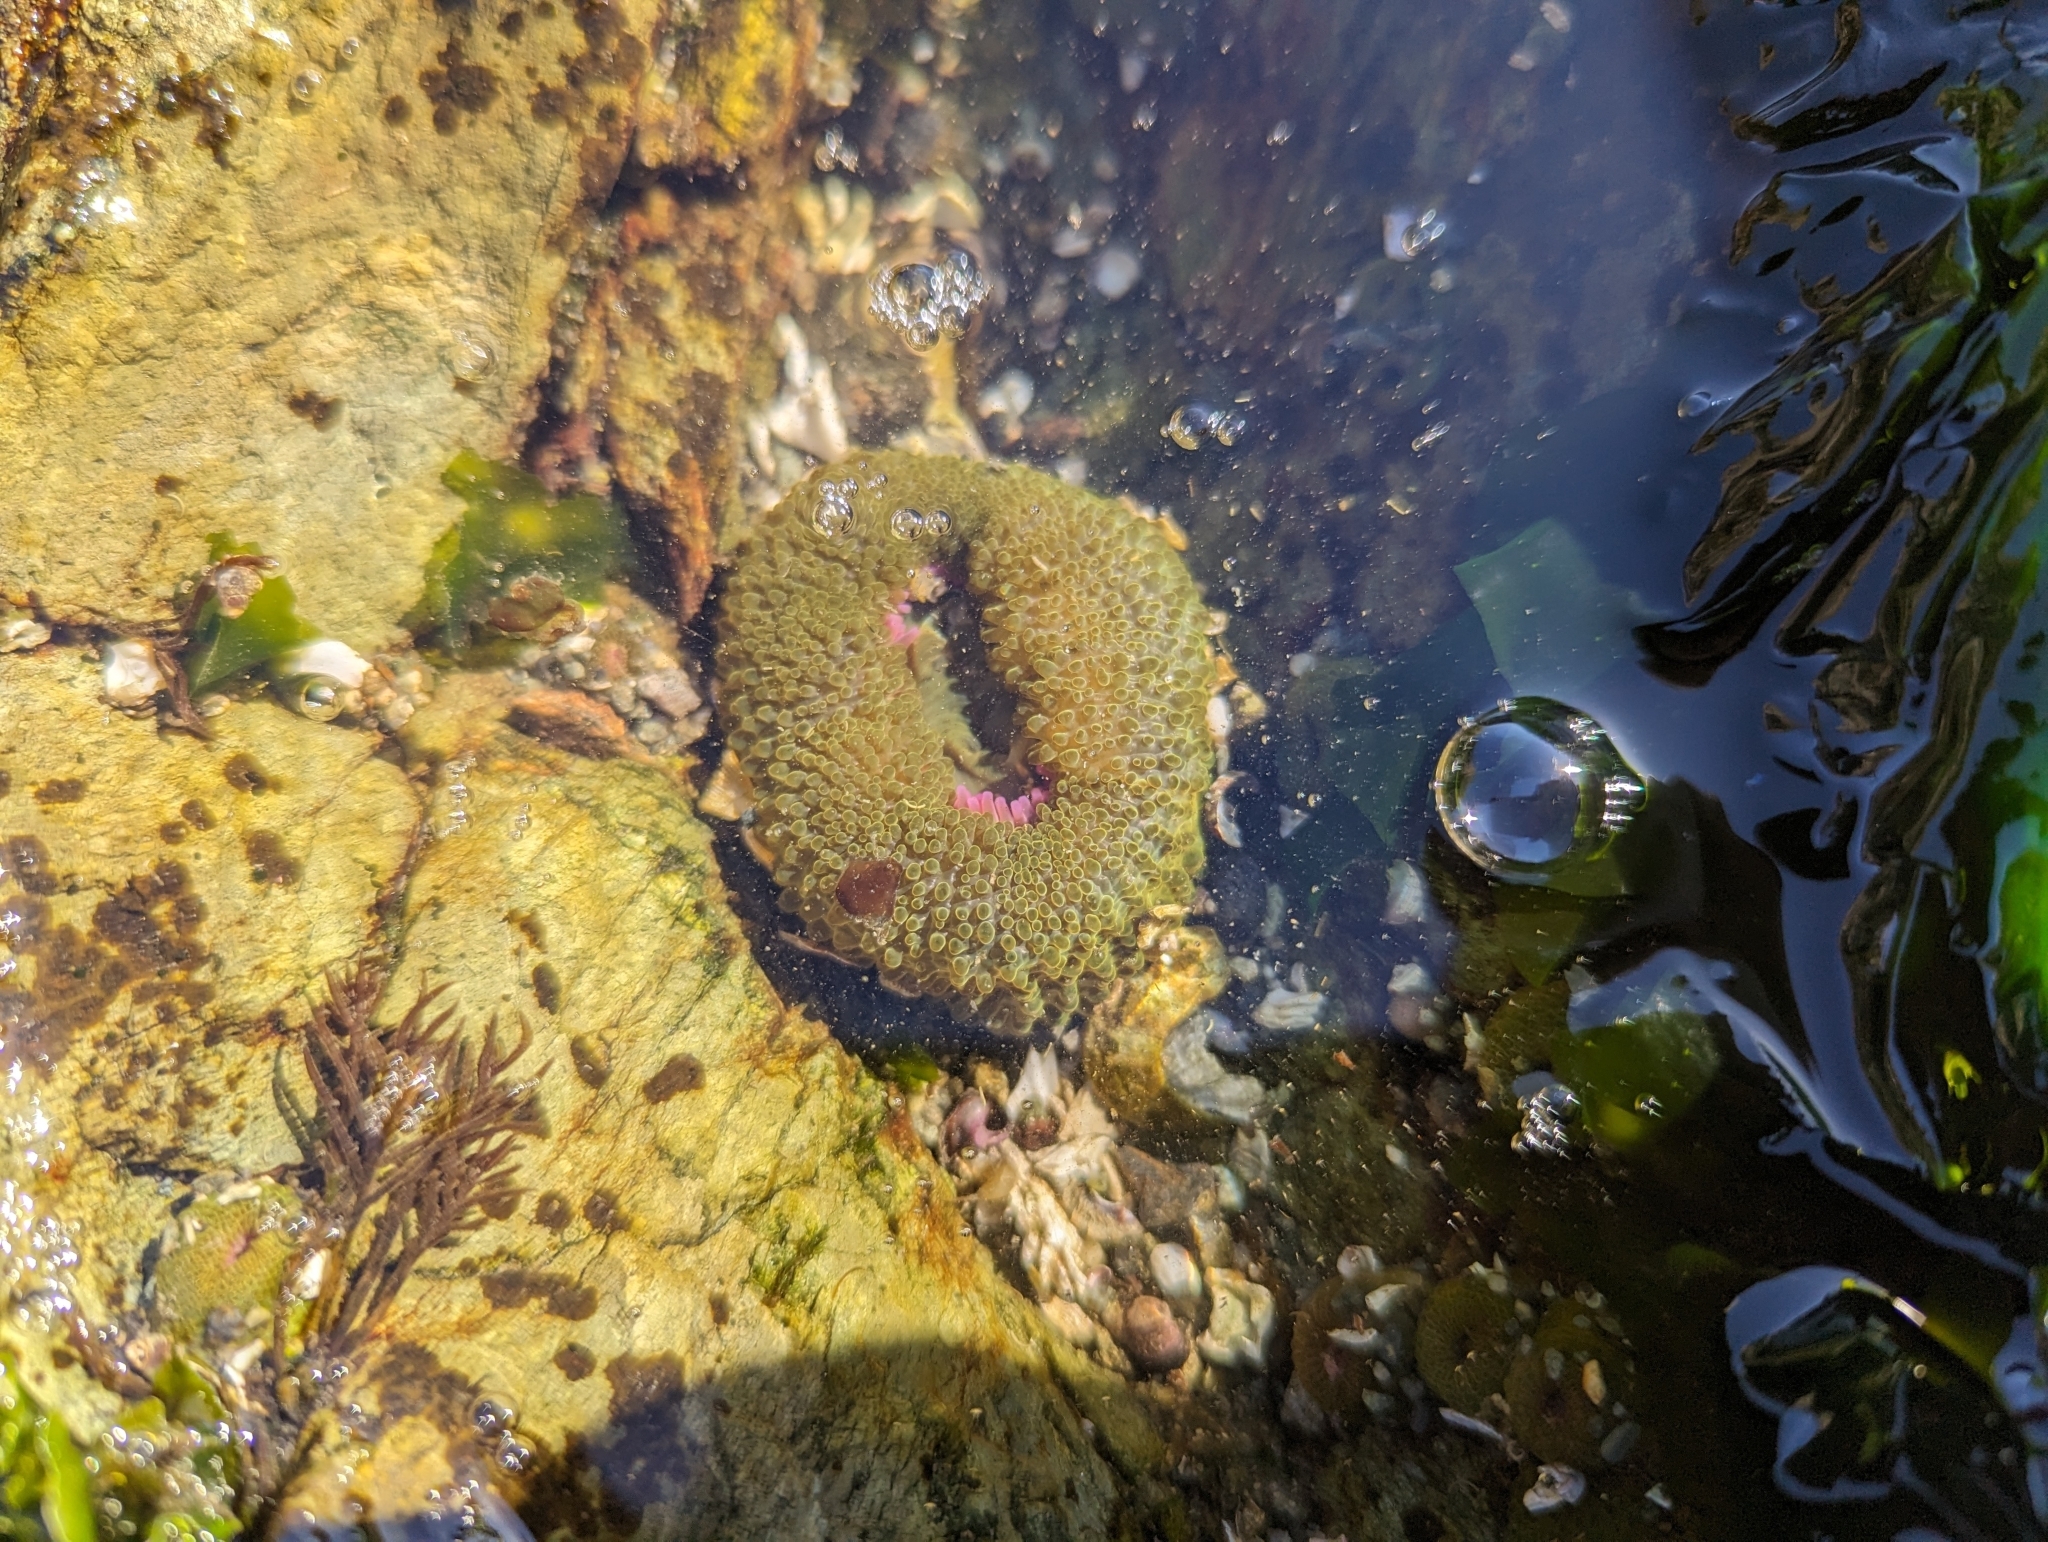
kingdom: Animalia
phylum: Cnidaria
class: Anthozoa
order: Actiniaria
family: Actiniidae
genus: Anthopleura
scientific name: Anthopleura elegantissima
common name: Clonal anemone
